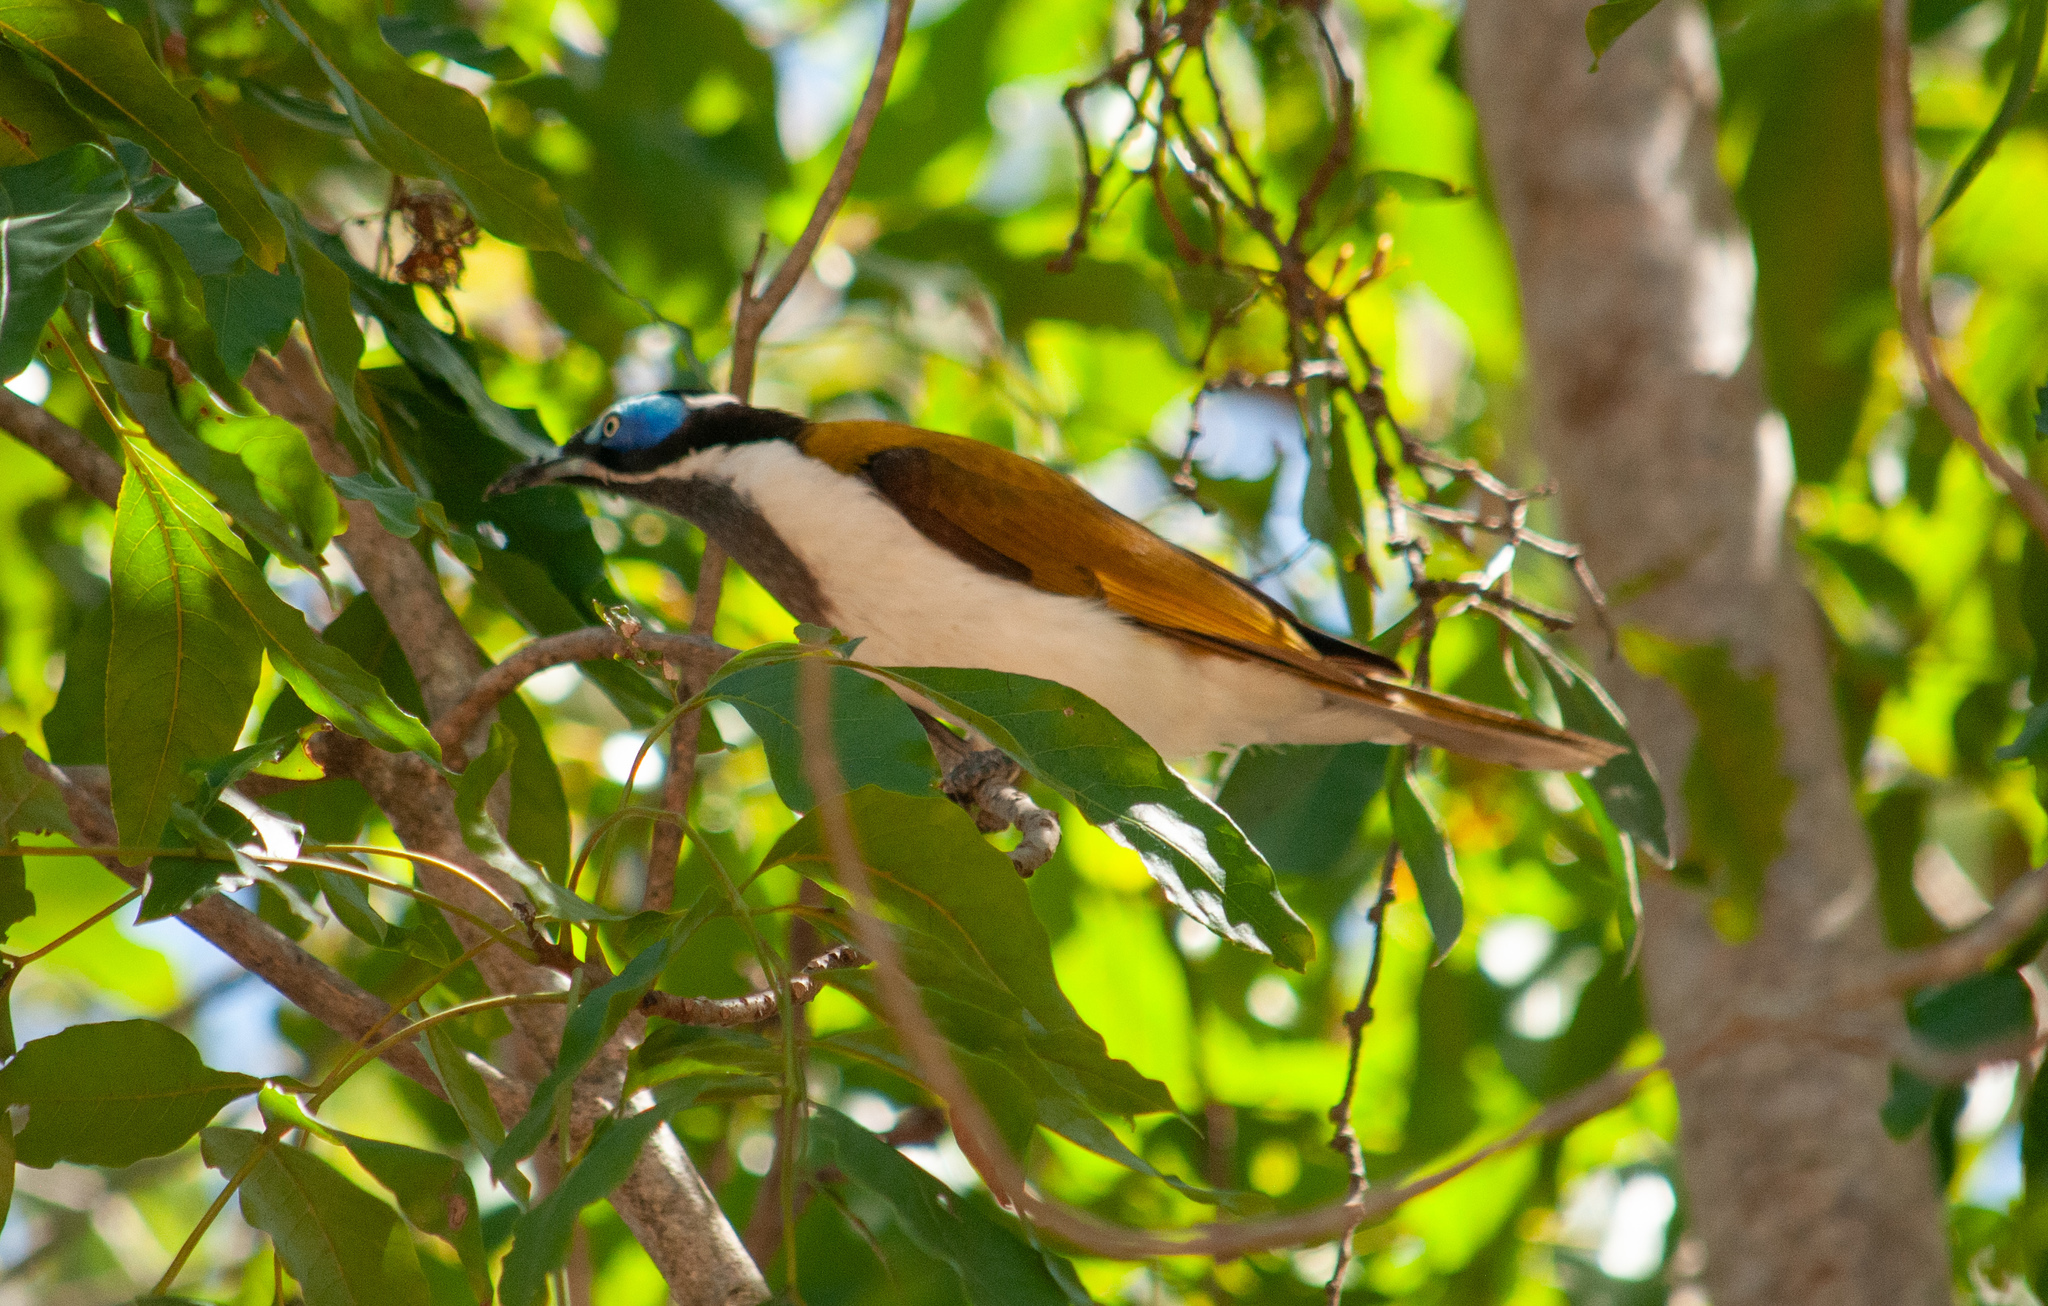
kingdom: Animalia
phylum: Chordata
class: Aves
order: Passeriformes
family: Meliphagidae
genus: Entomyzon
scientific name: Entomyzon cyanotis
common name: Blue-faced honeyeater
